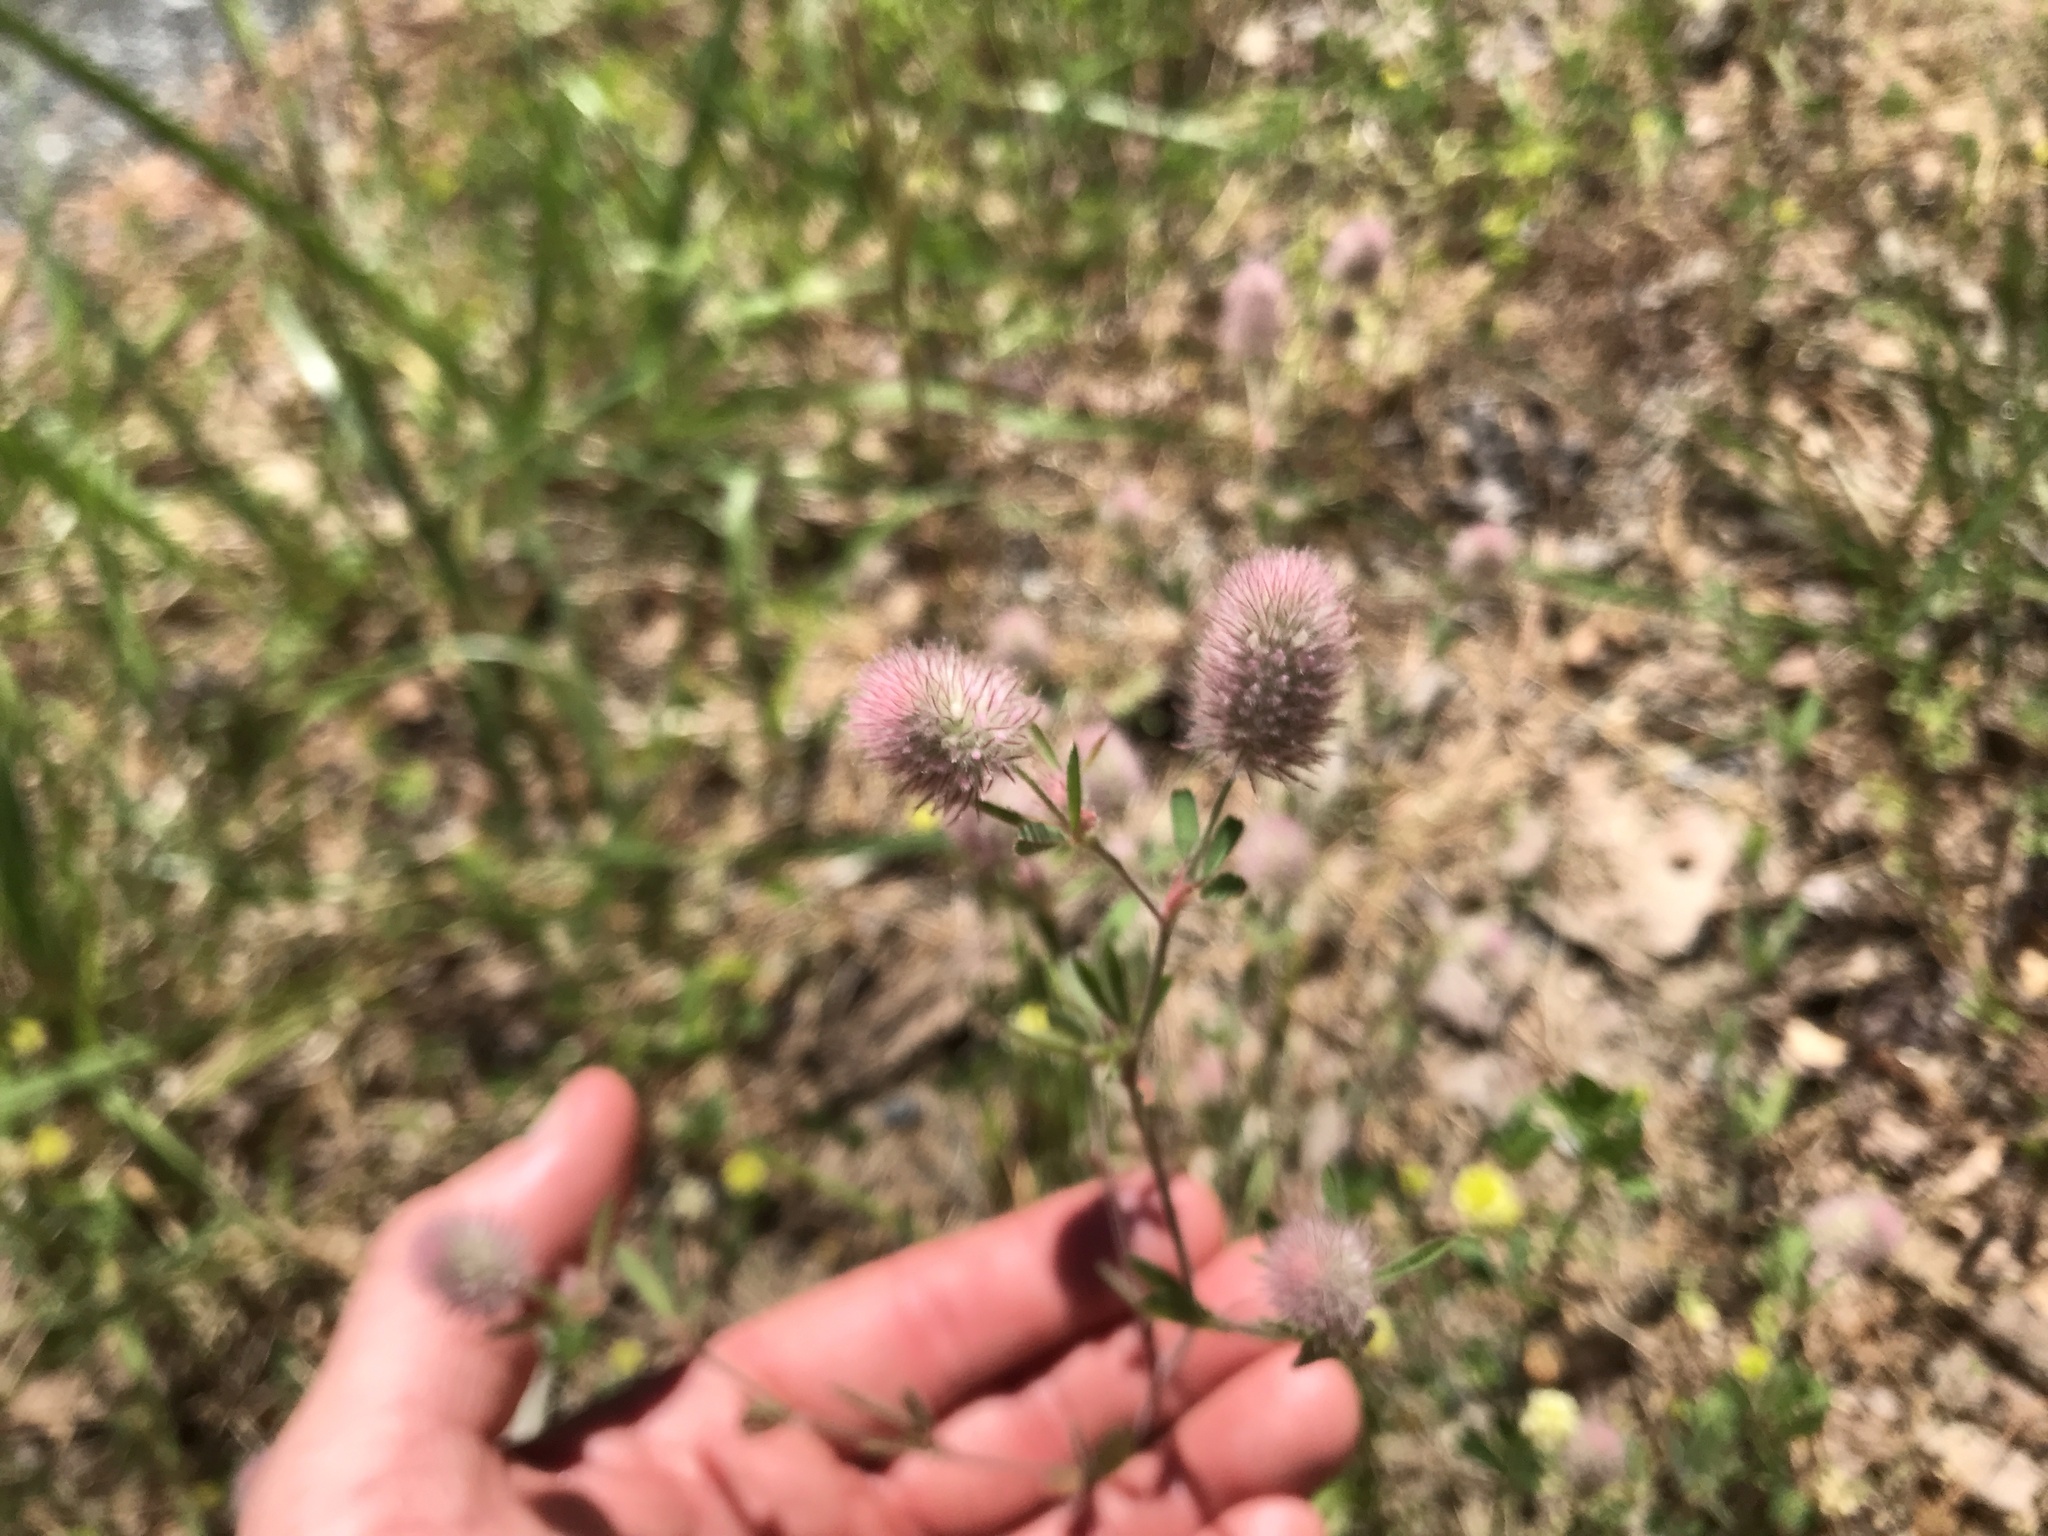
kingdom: Plantae
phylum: Tracheophyta
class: Magnoliopsida
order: Fabales
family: Fabaceae
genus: Trifolium
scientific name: Trifolium arvense
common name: Hare's-foot clover
